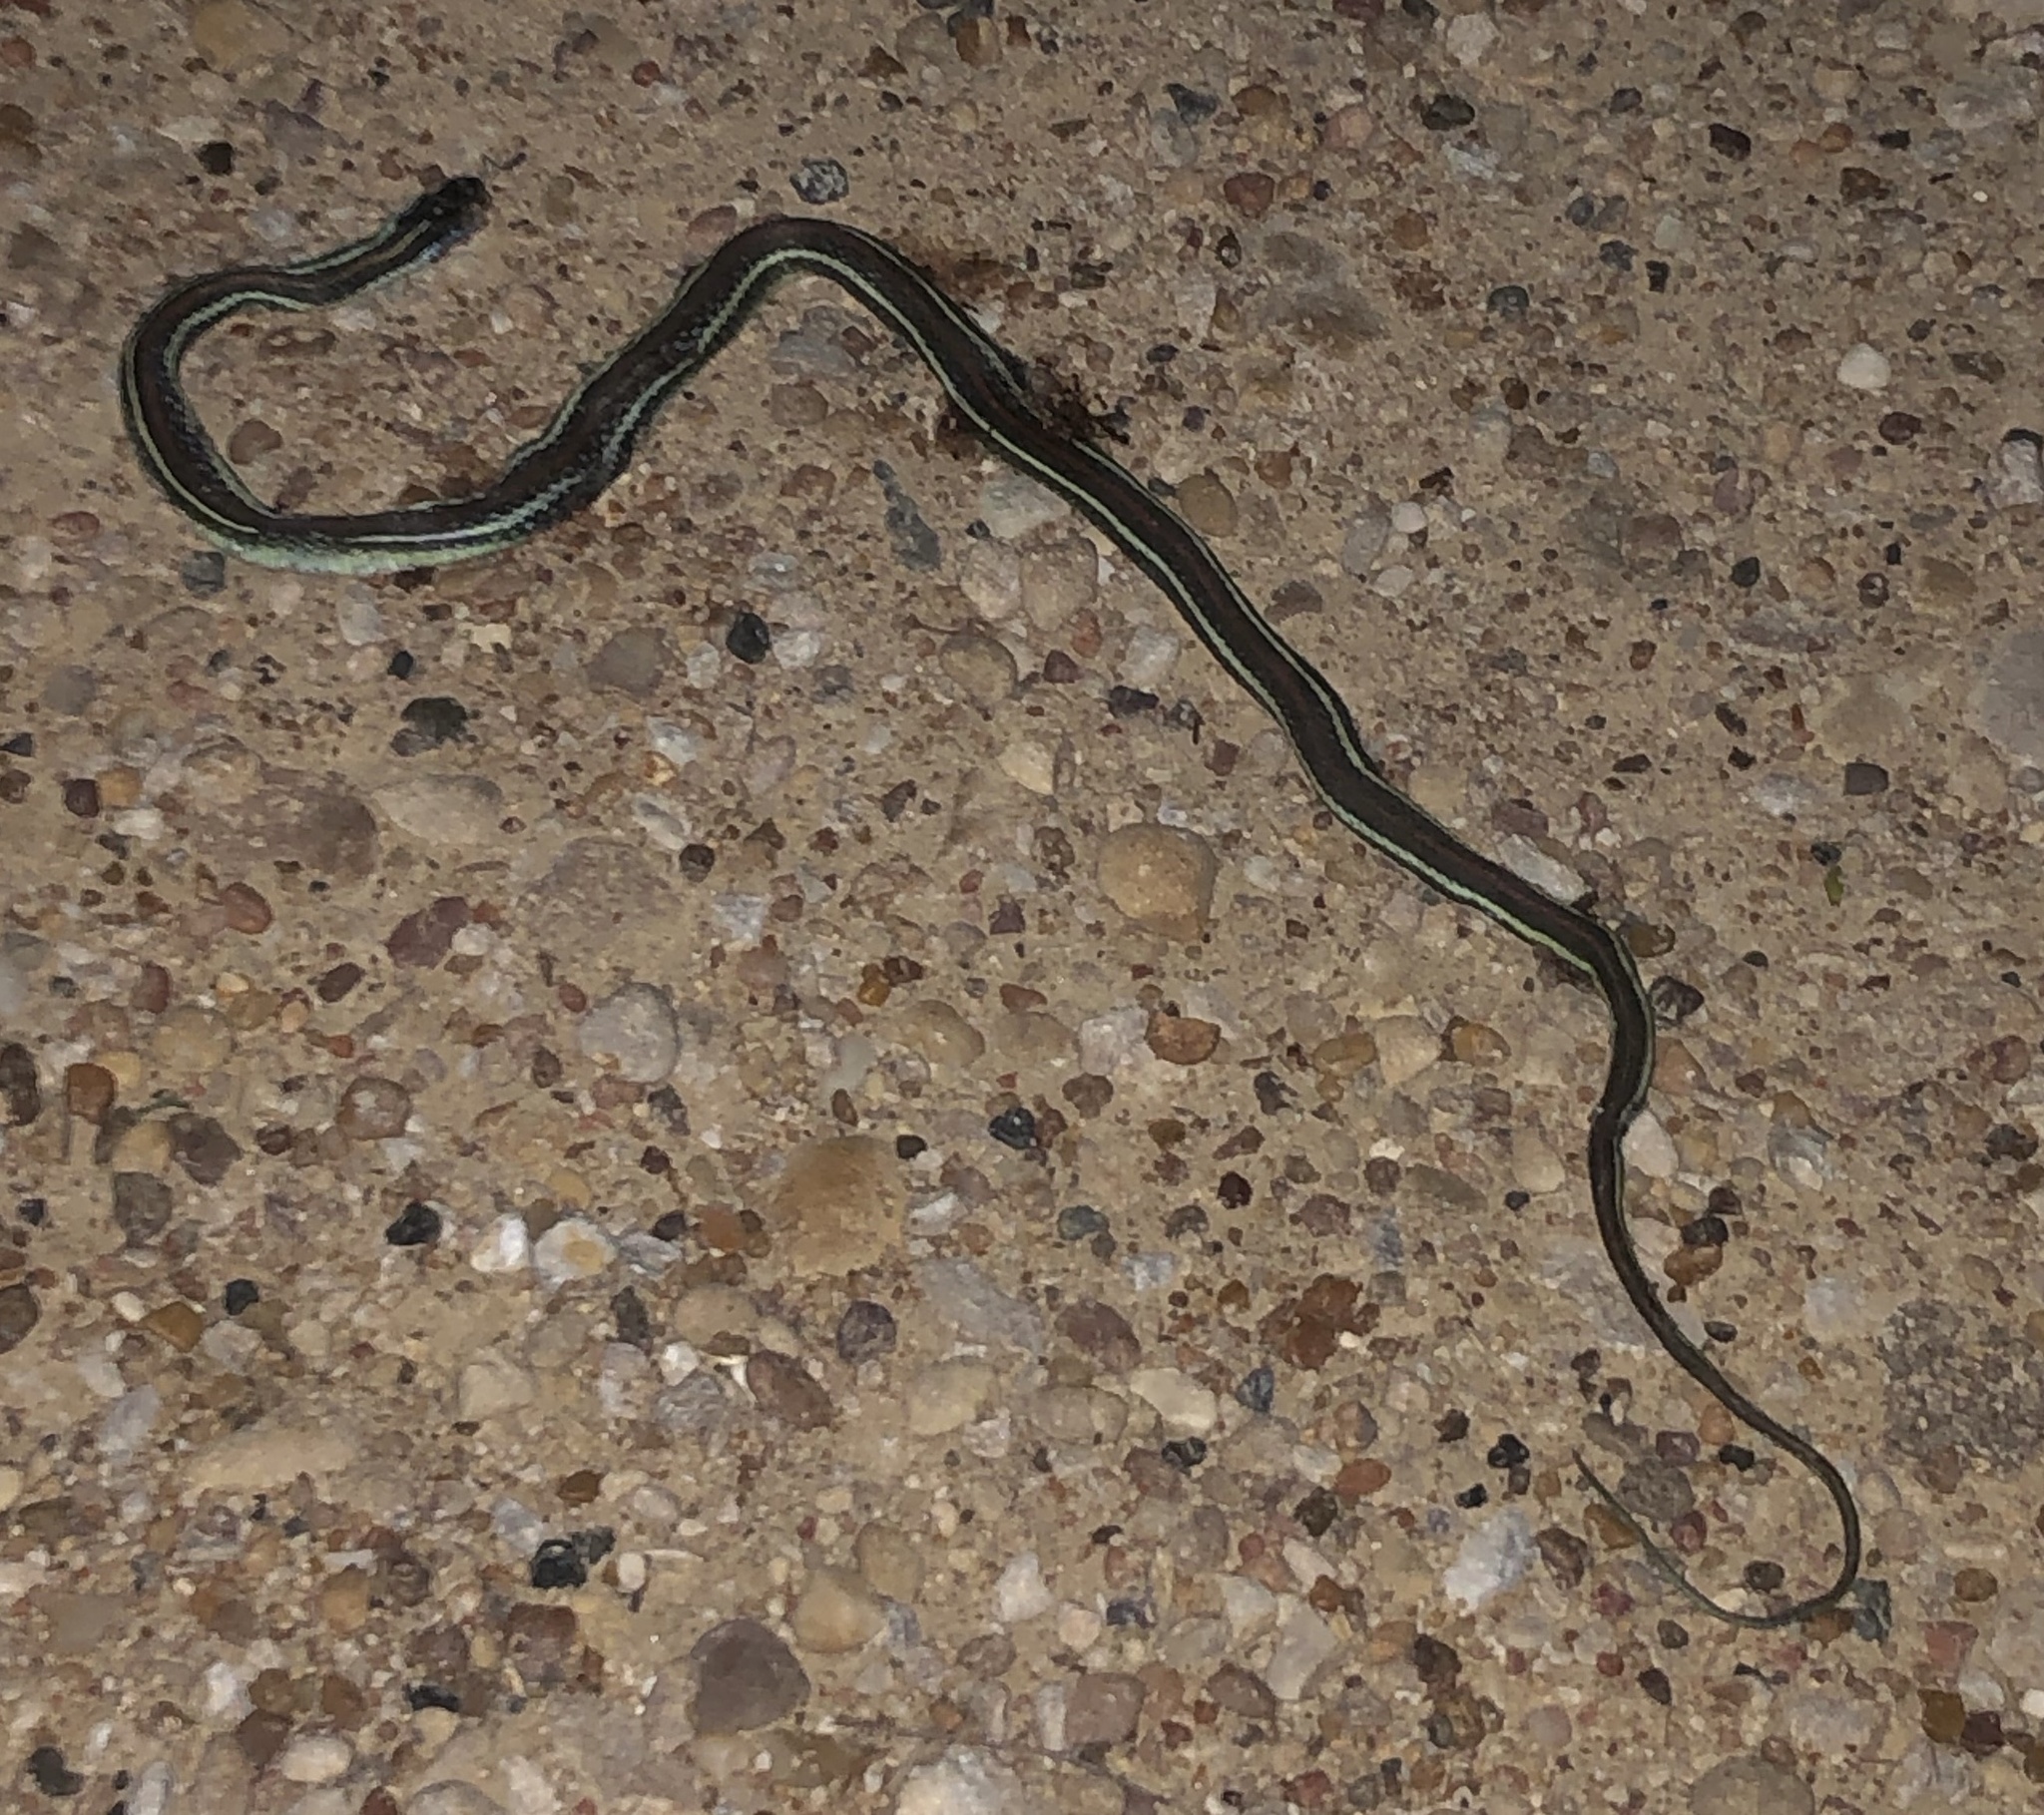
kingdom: Animalia
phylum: Chordata
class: Squamata
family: Colubridae
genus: Thamnophis
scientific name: Thamnophis proximus
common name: Western ribbon snake
